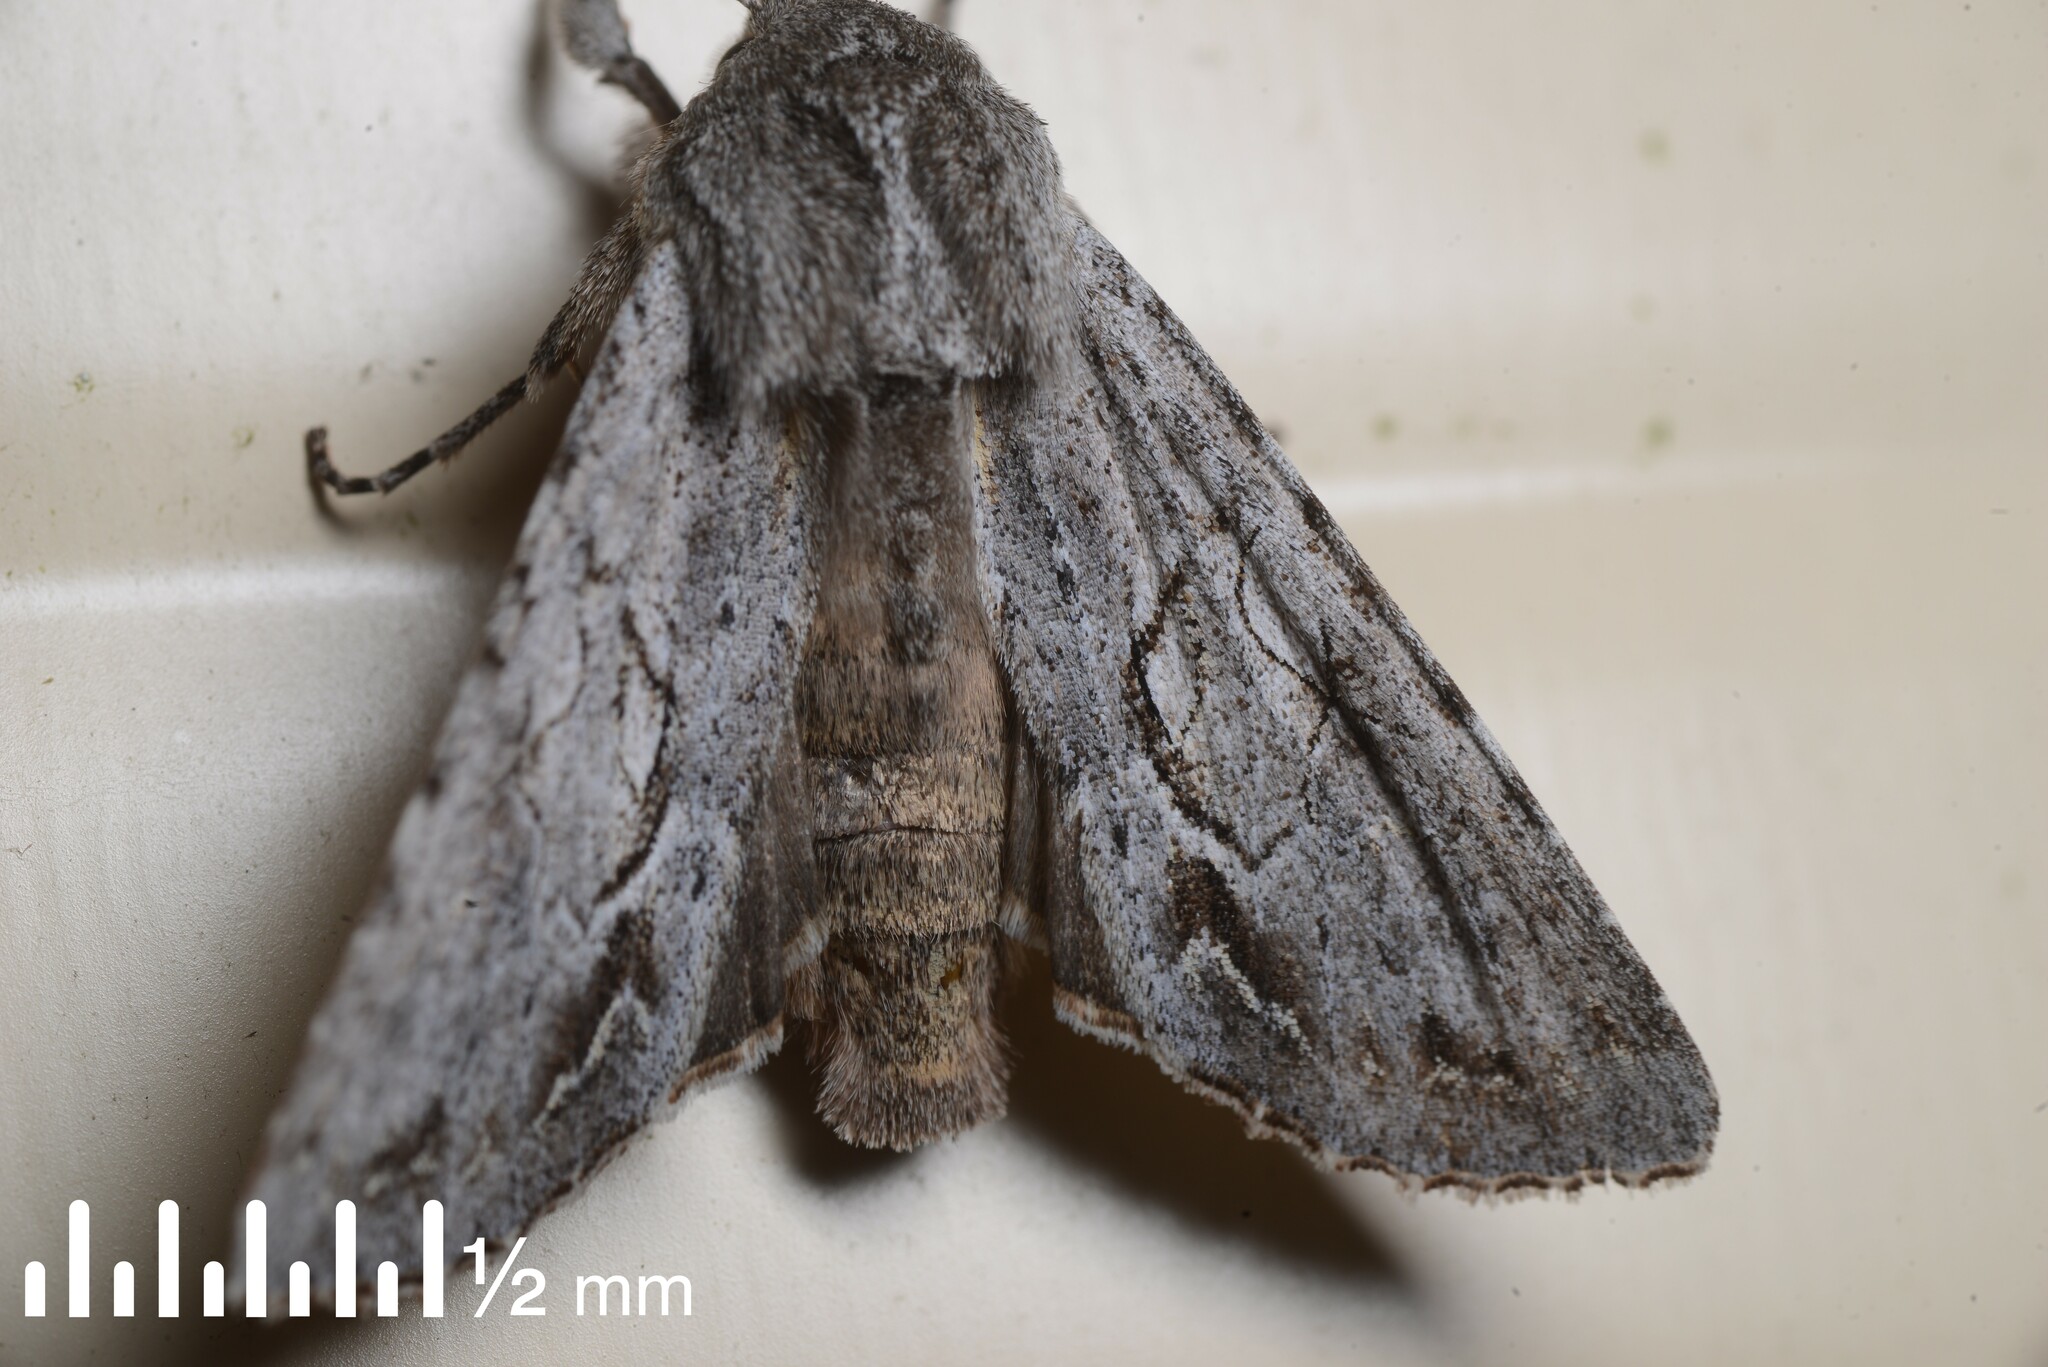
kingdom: Animalia
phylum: Arthropoda
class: Insecta
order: Lepidoptera
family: Noctuidae
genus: Ichneutica
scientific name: Ichneutica
